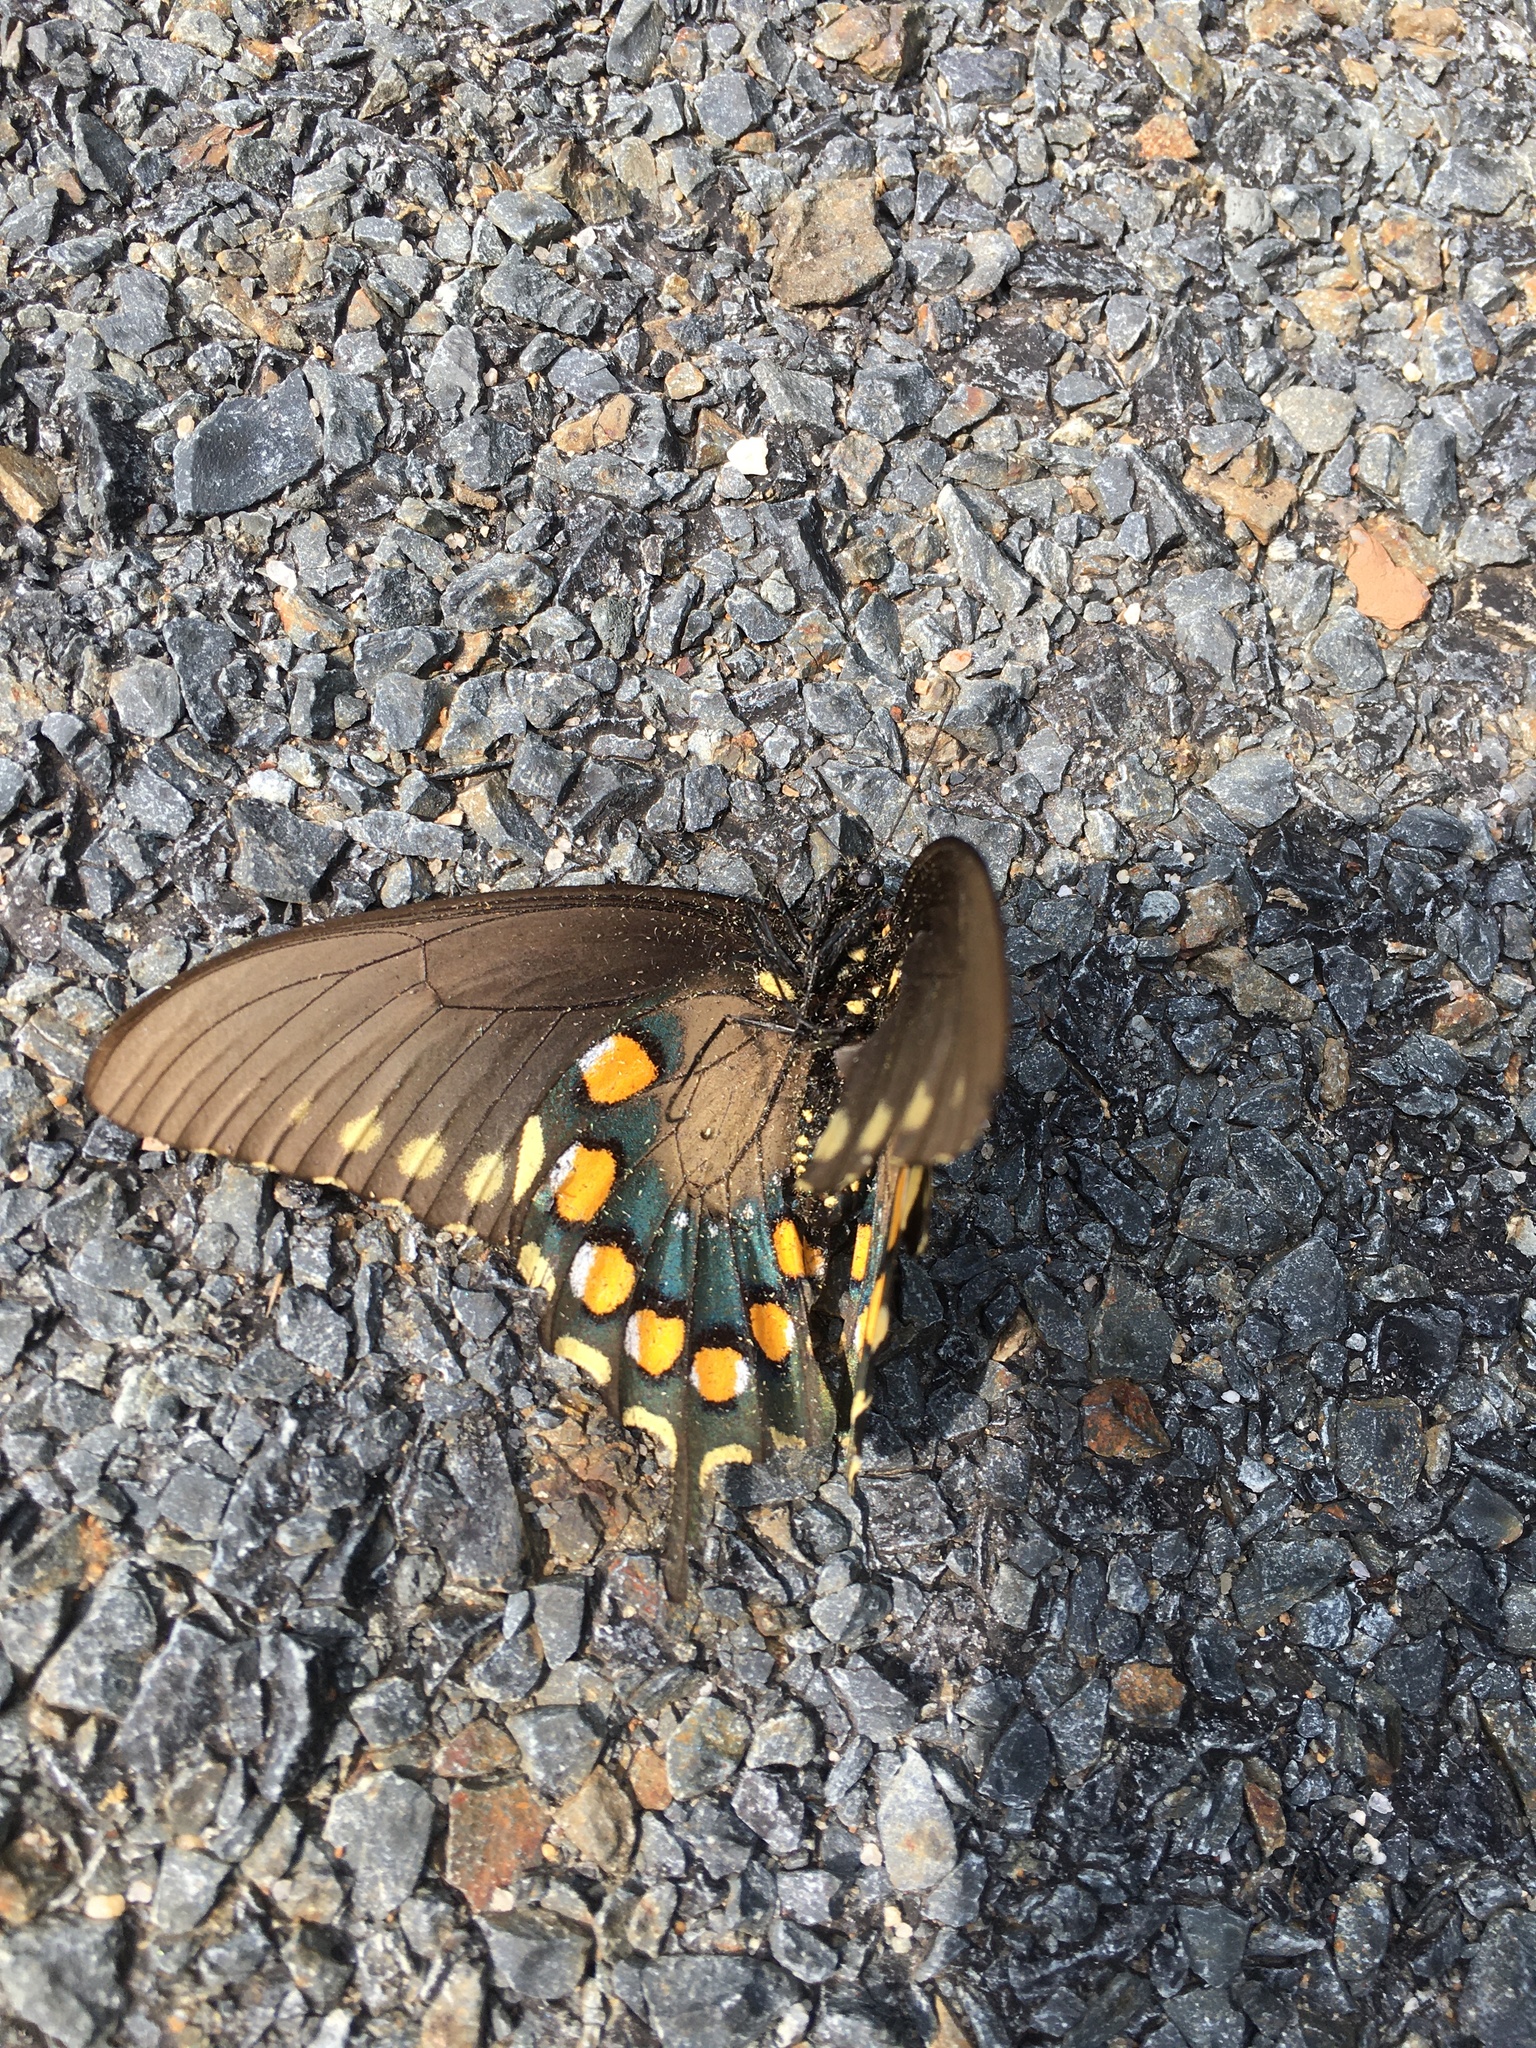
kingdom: Animalia
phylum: Arthropoda
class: Insecta
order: Lepidoptera
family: Papilionidae
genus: Battus
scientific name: Battus philenor
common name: Pipevine swallowtail
